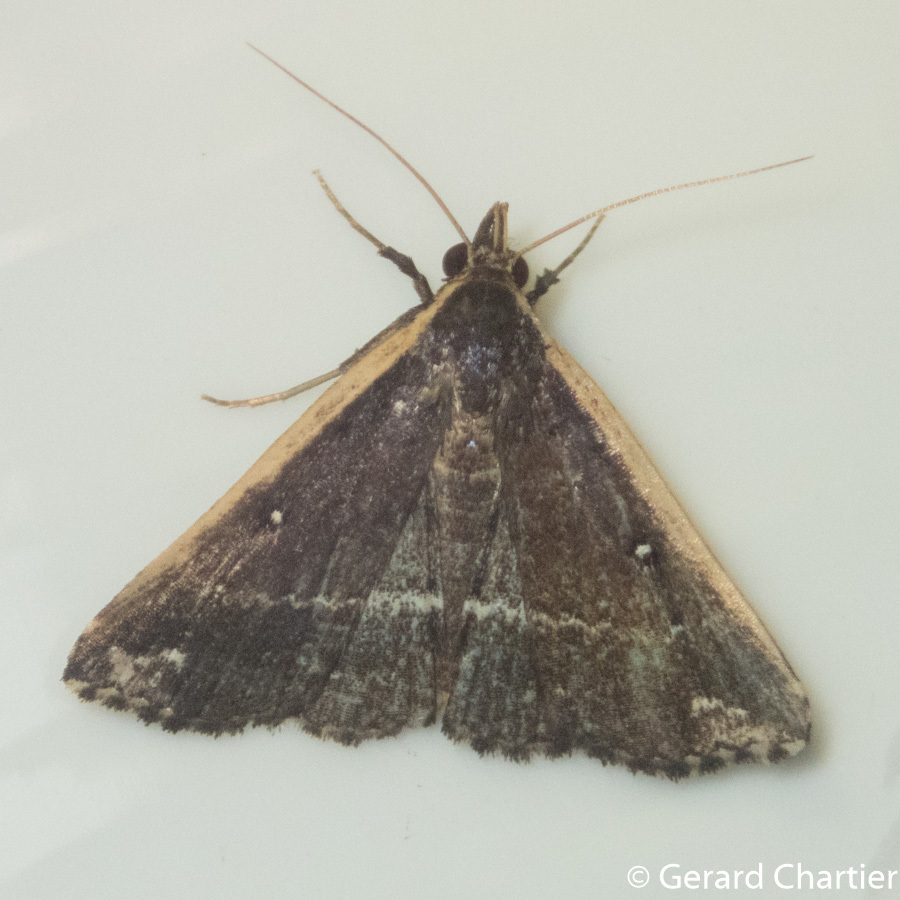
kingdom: Animalia
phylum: Arthropoda
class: Insecta
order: Lepidoptera
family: Erebidae
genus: Adrapsa
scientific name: Adrapsa ablualis
